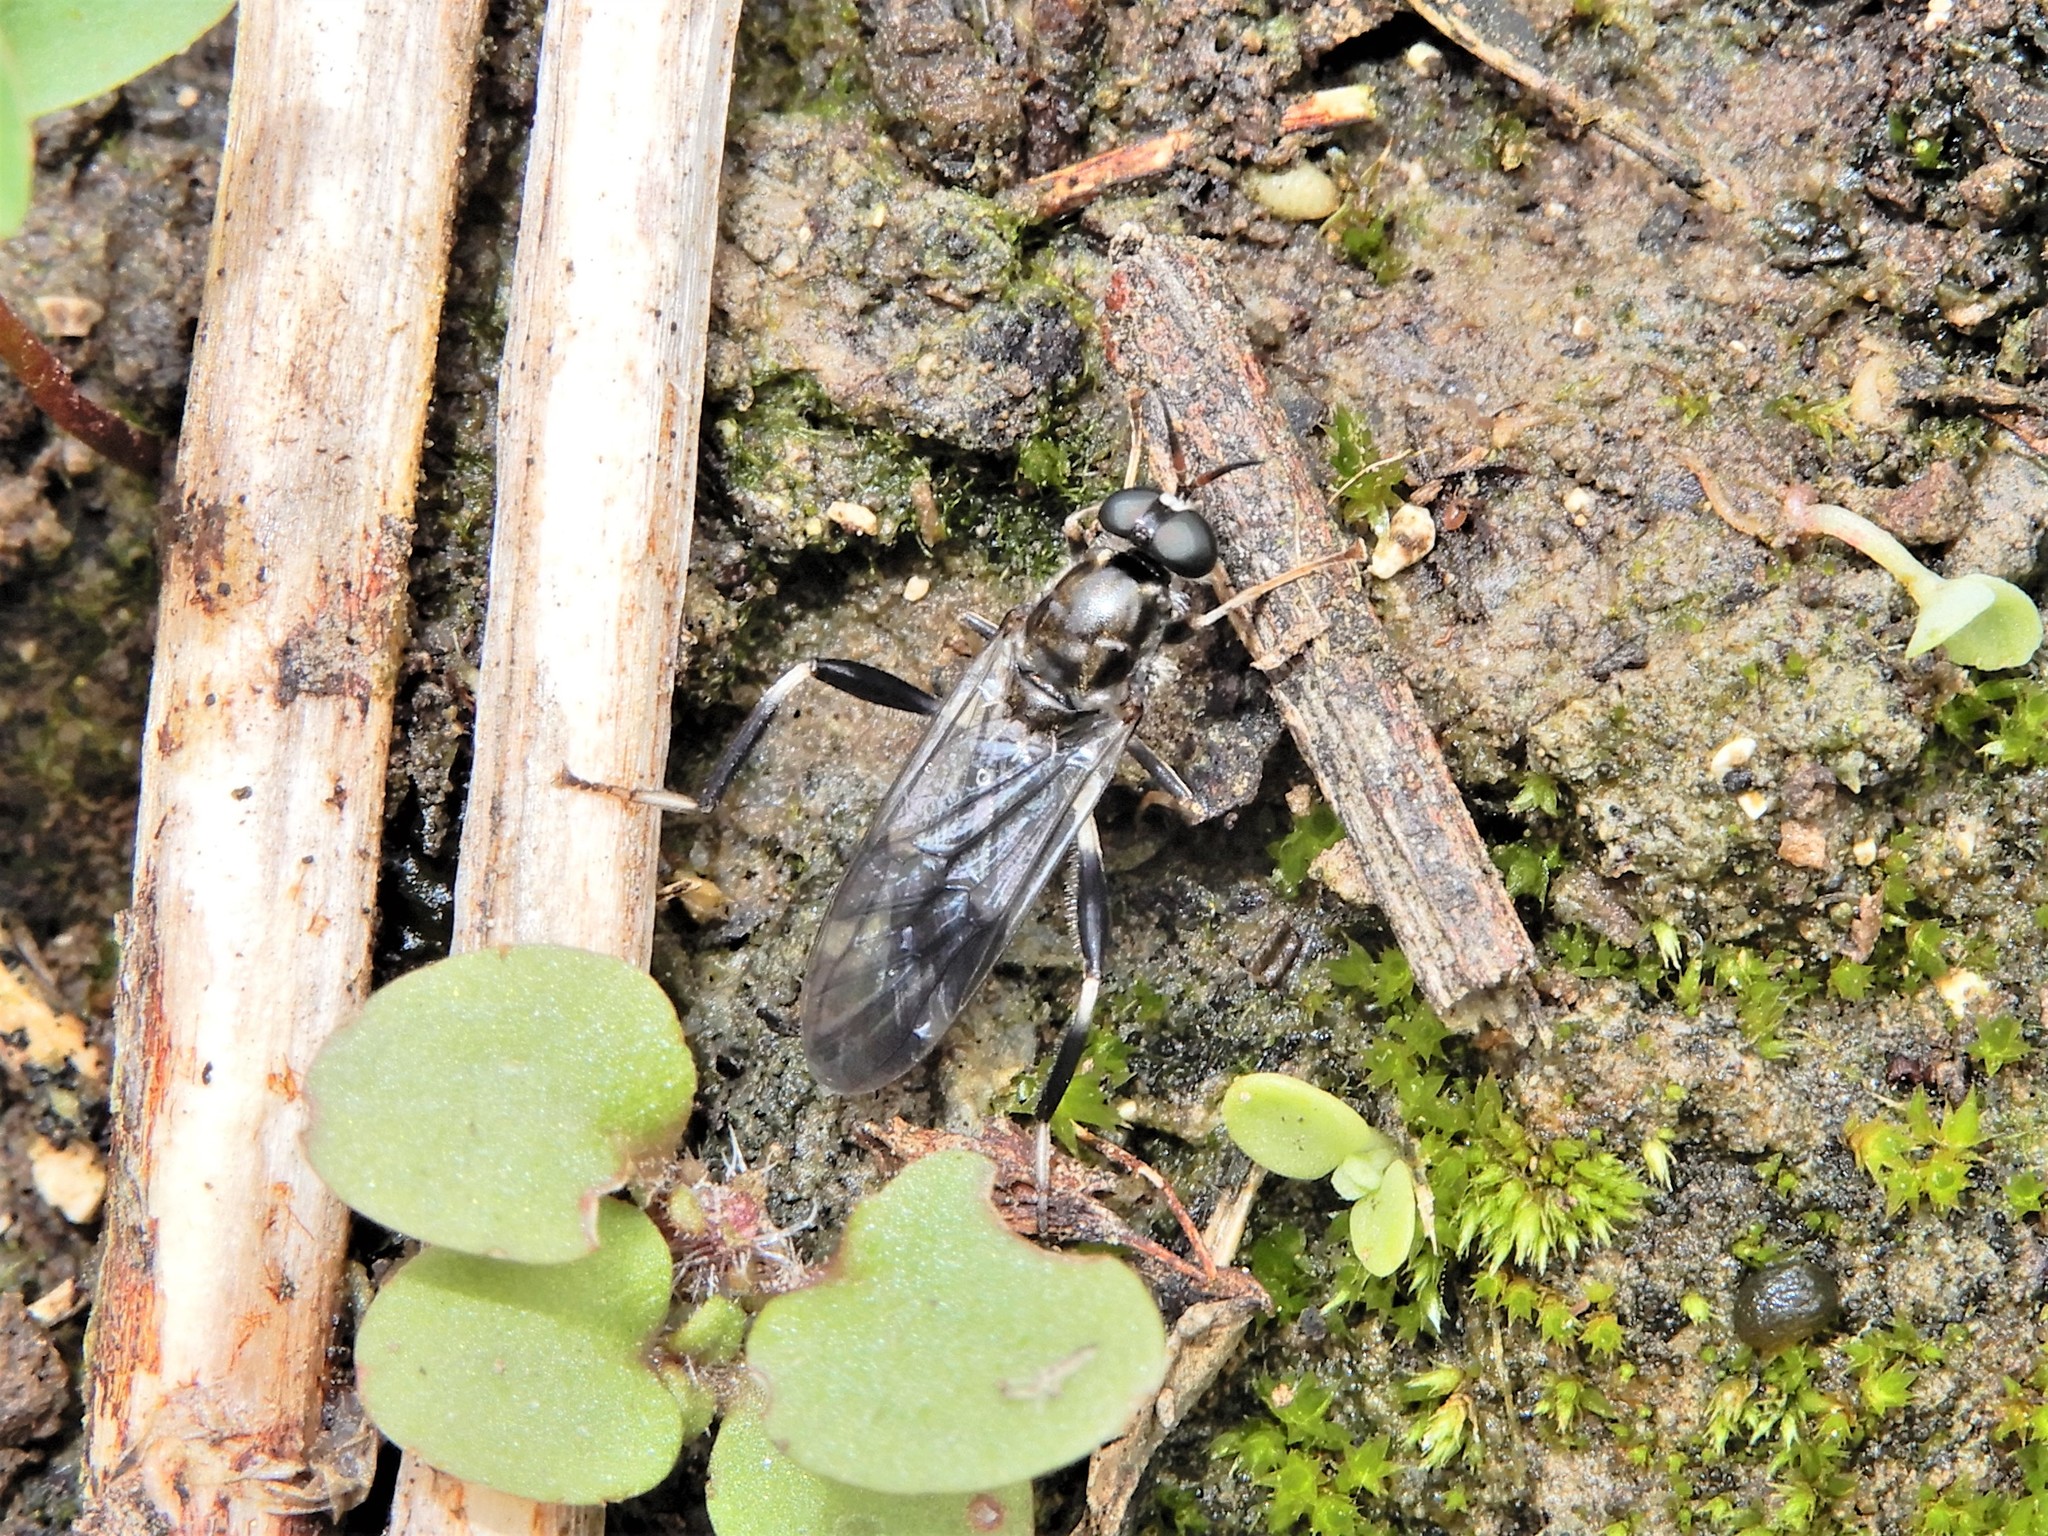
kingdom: Animalia
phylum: Arthropoda
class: Insecta
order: Diptera
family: Stratiomyidae
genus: Exaireta
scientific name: Exaireta spinigera
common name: Blue soldier fly
